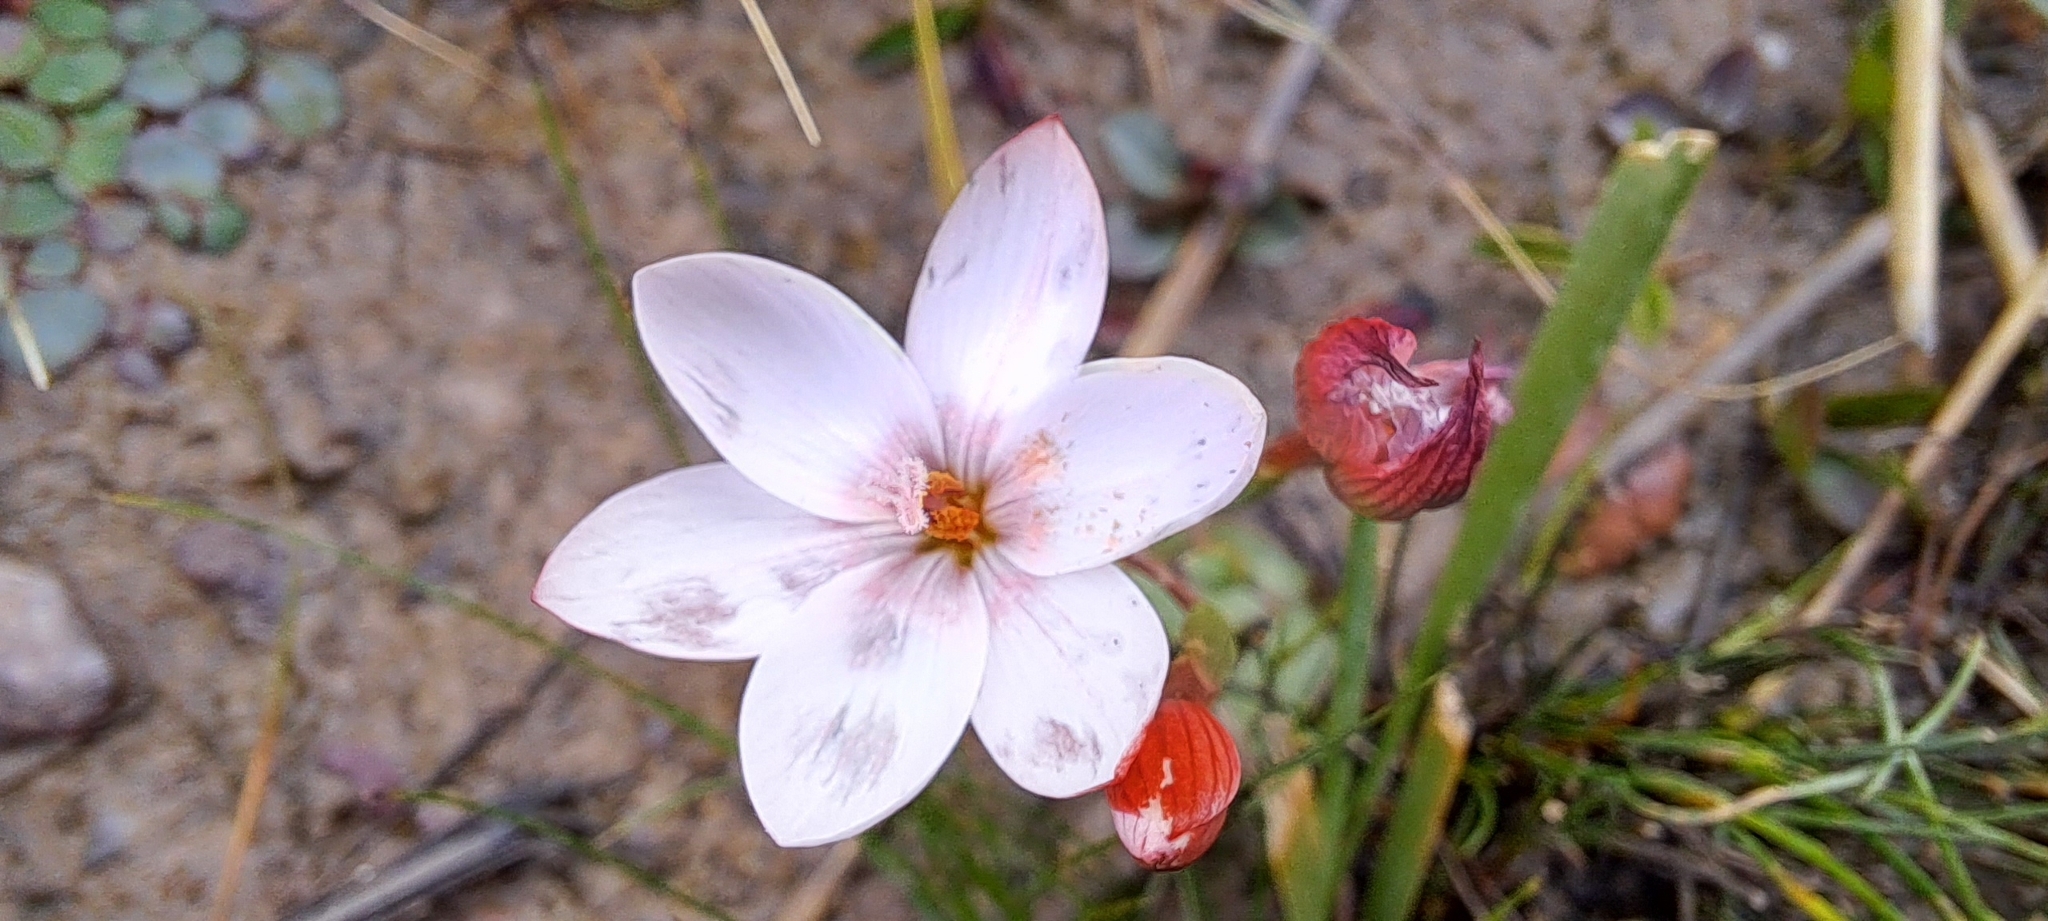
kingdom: Plantae
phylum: Tracheophyta
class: Liliopsida
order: Asparagales
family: Iridaceae
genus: Geissorhiza
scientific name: Geissorhiza ovata
